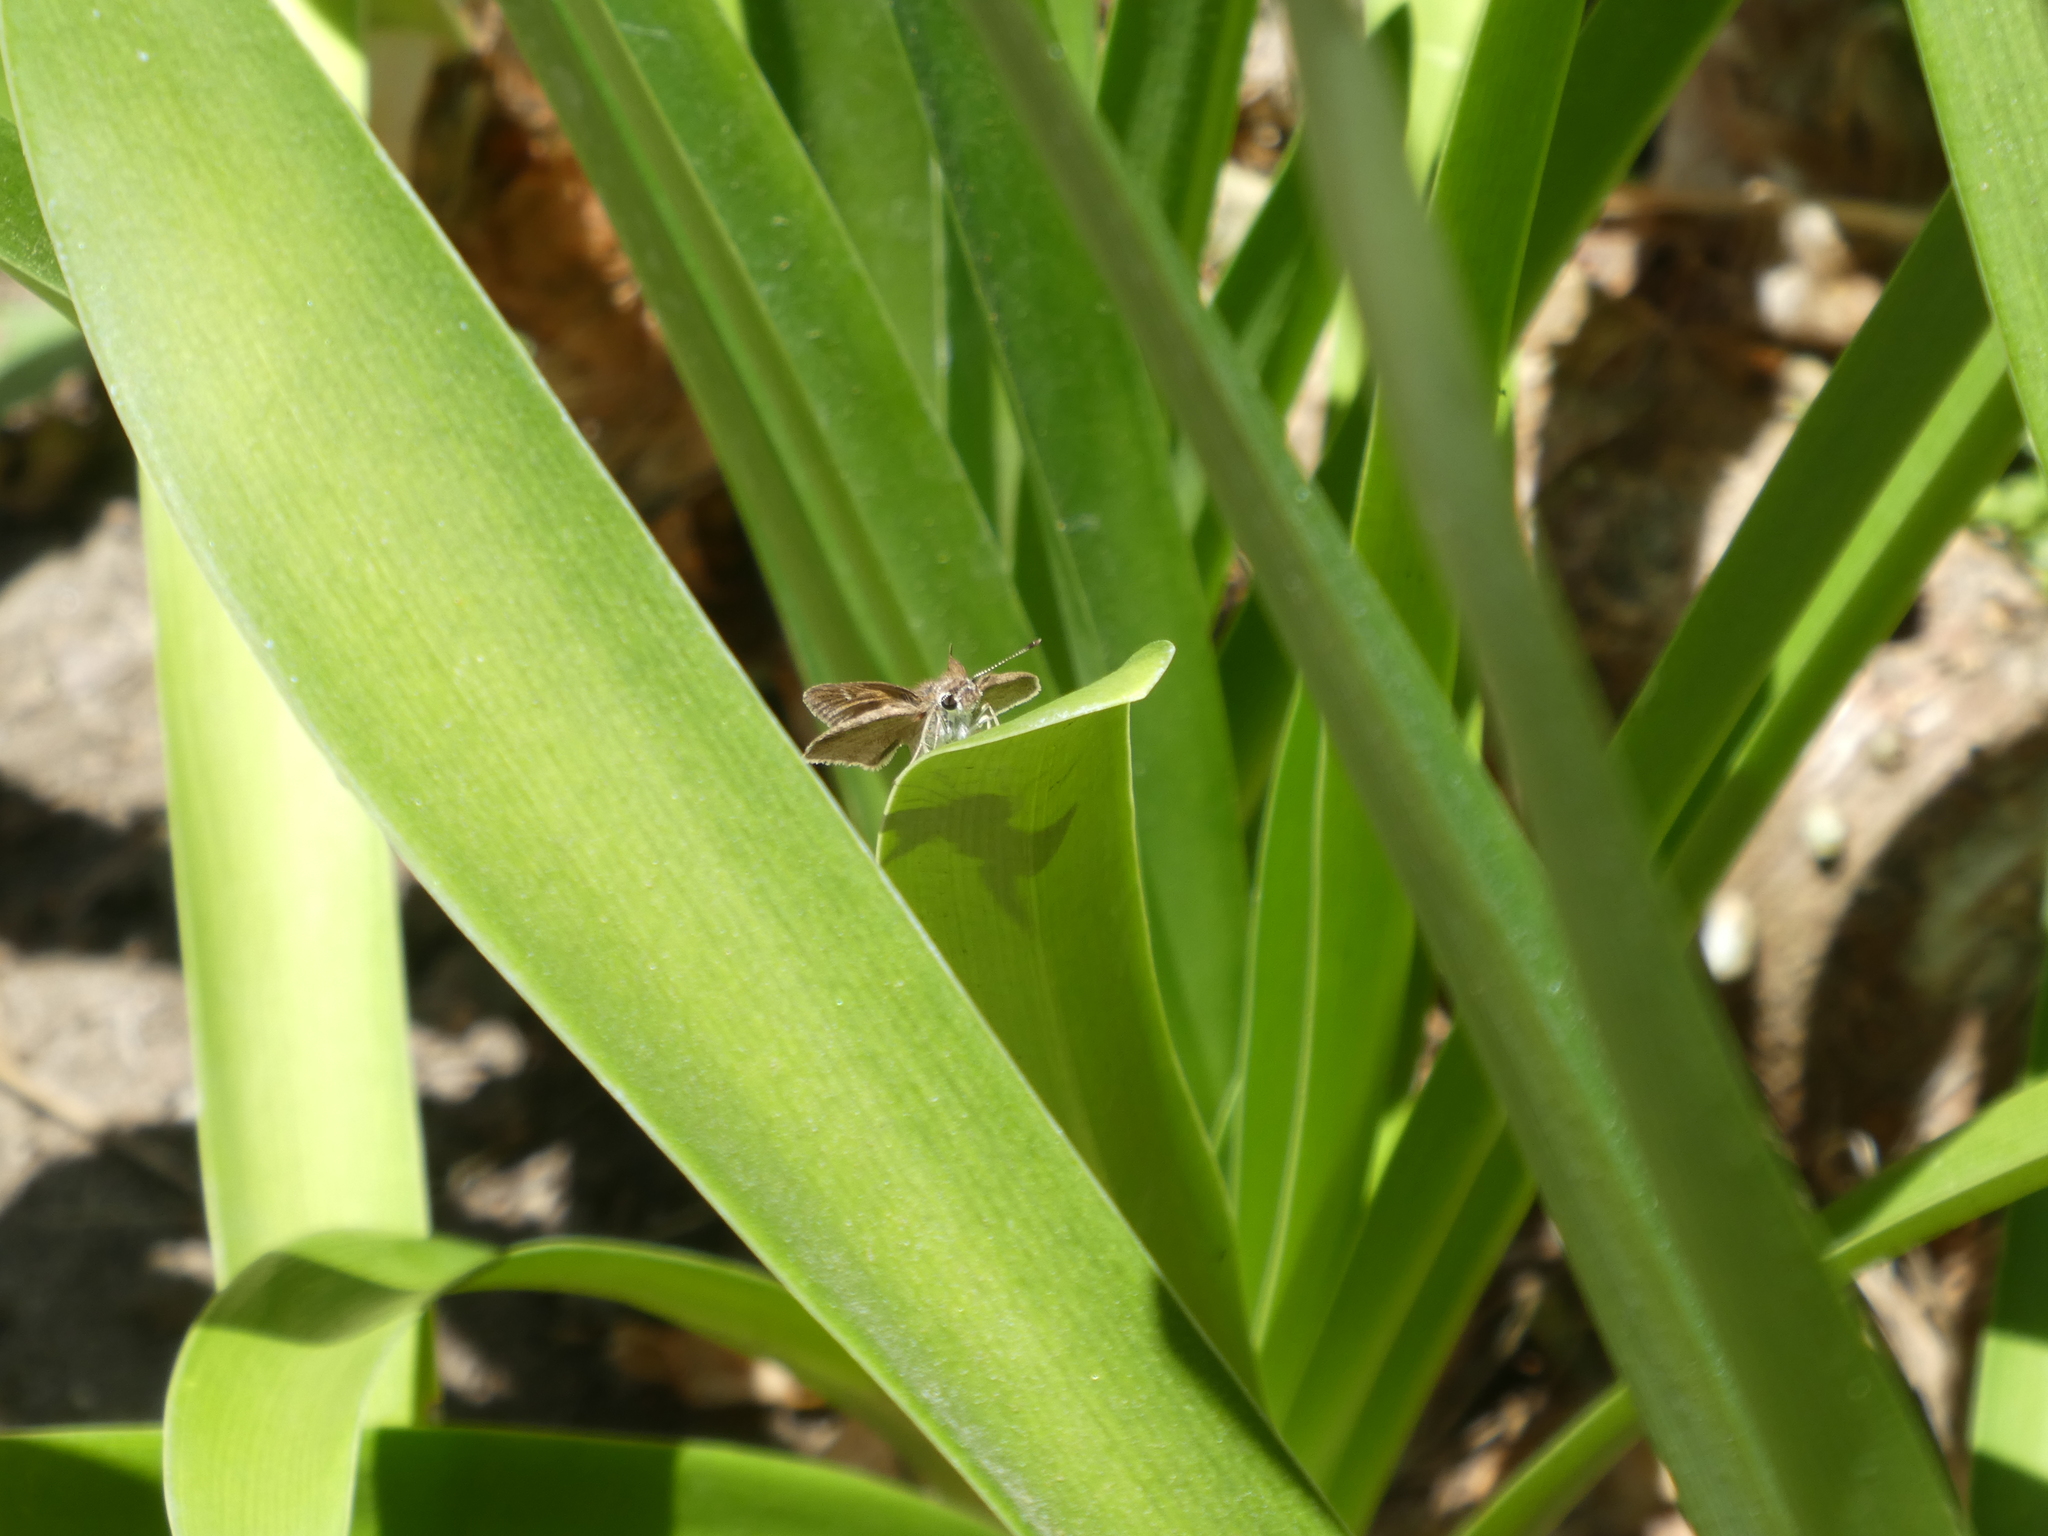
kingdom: Animalia
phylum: Arthropoda
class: Insecta
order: Lepidoptera
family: Hesperiidae
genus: Lerodea
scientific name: Lerodea eufala
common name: Eufala skipper
